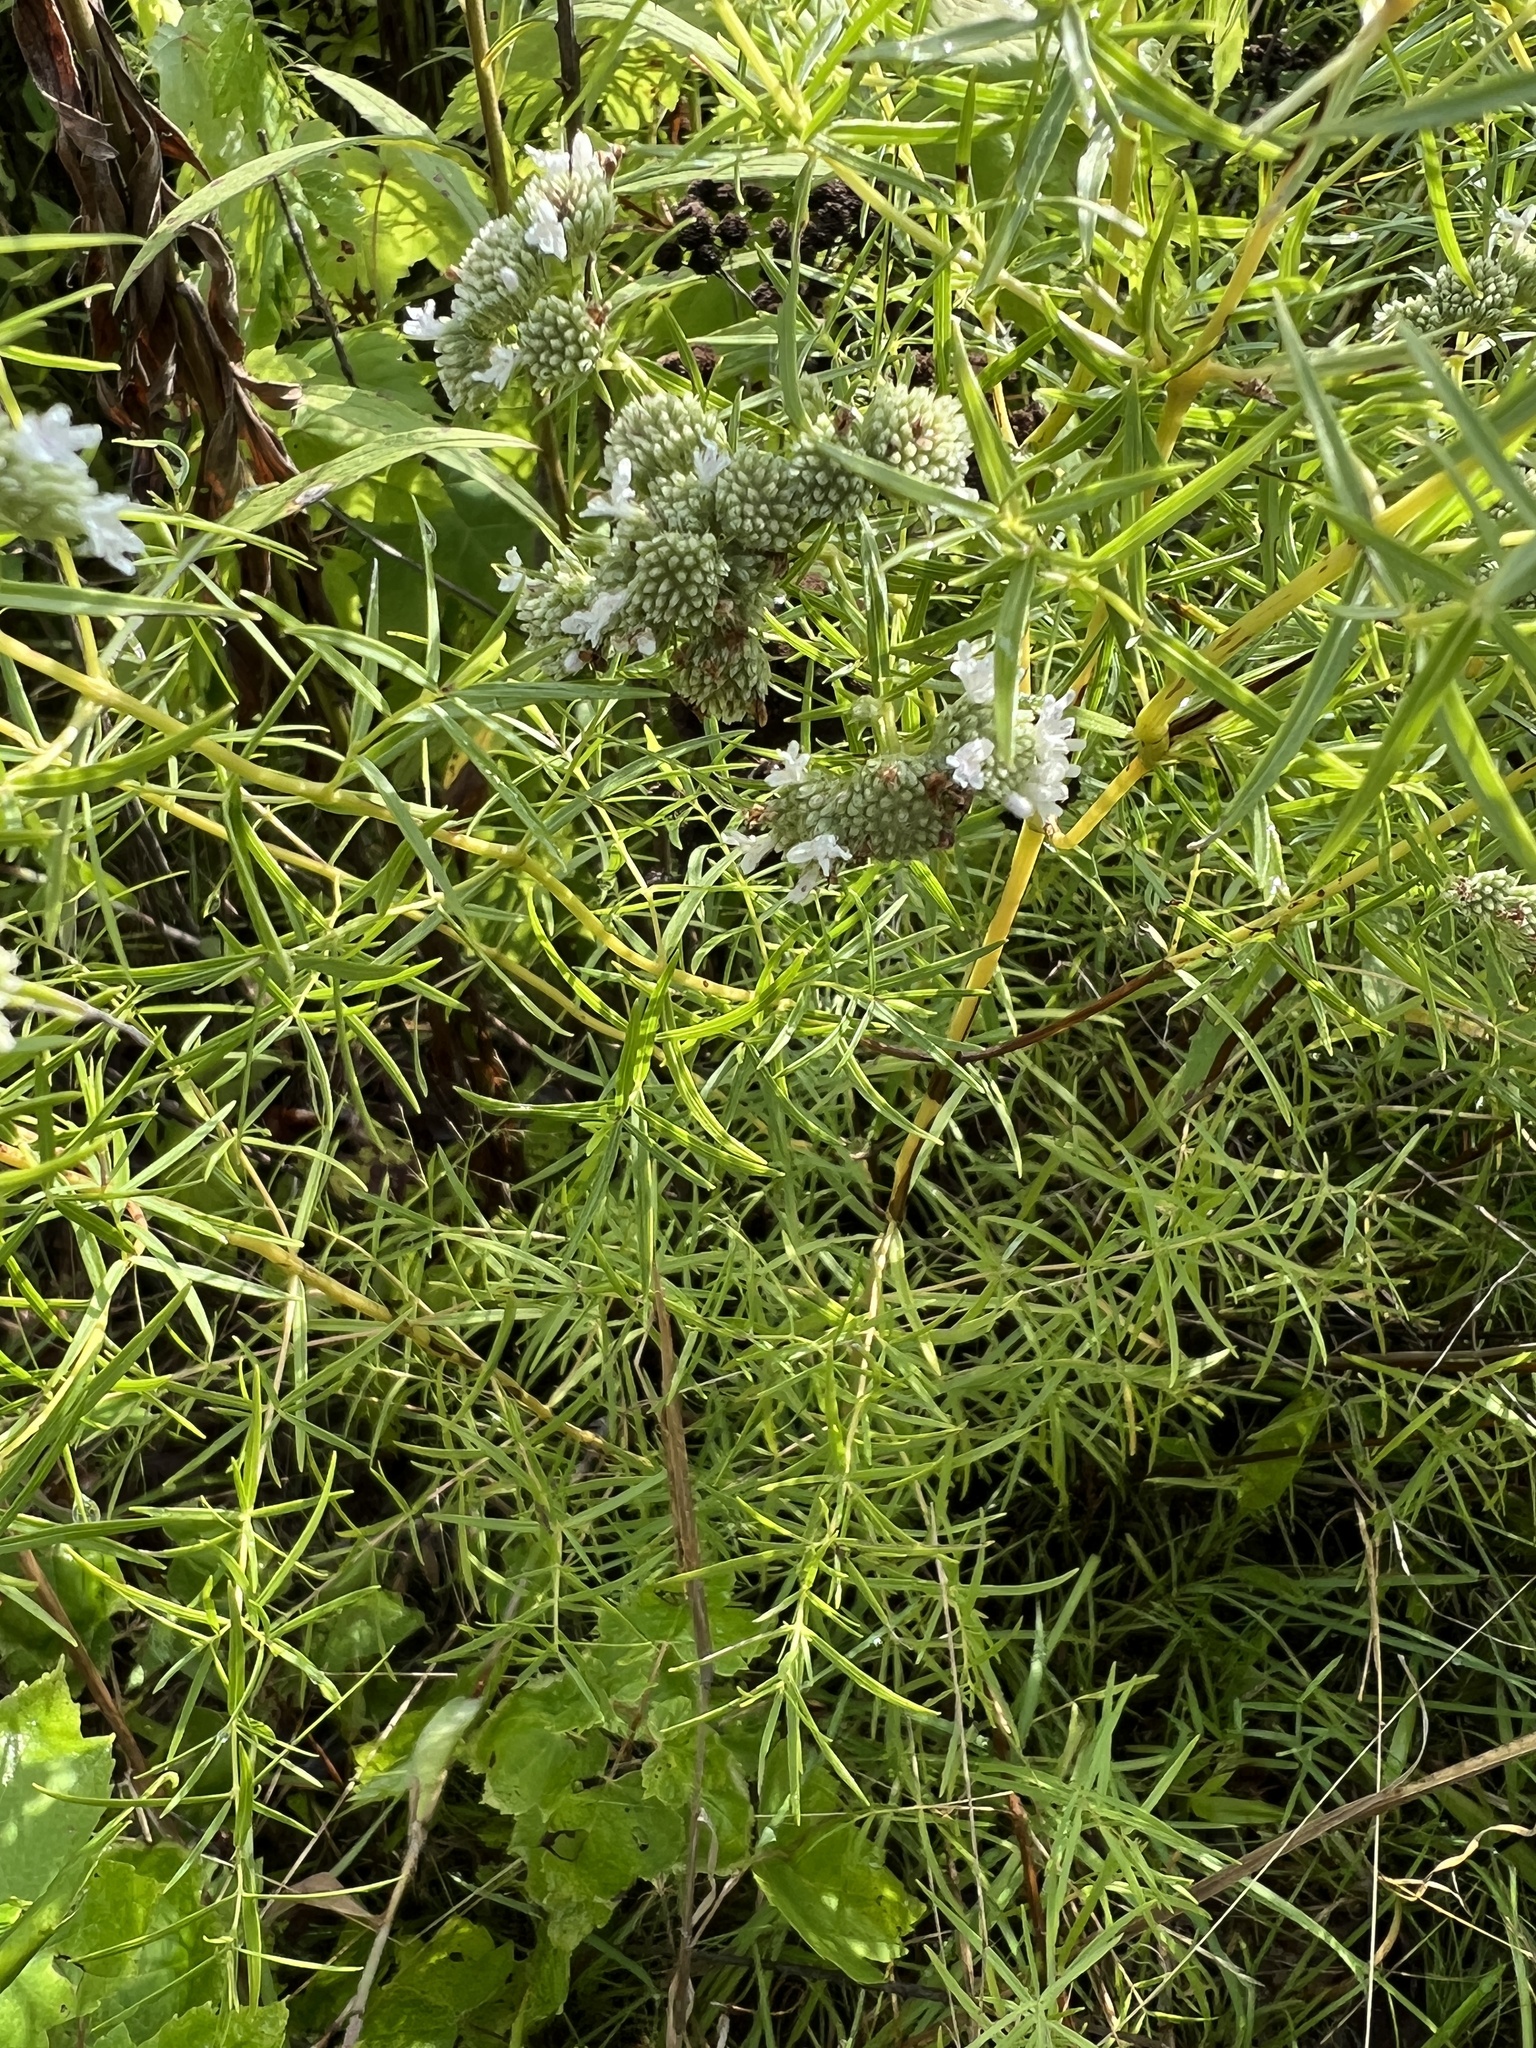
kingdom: Plantae
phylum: Tracheophyta
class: Magnoliopsida
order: Lamiales
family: Lamiaceae
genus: Pycnanthemum
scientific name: Pycnanthemum tenuifolium
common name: Narrow-leaf mountain-mint
